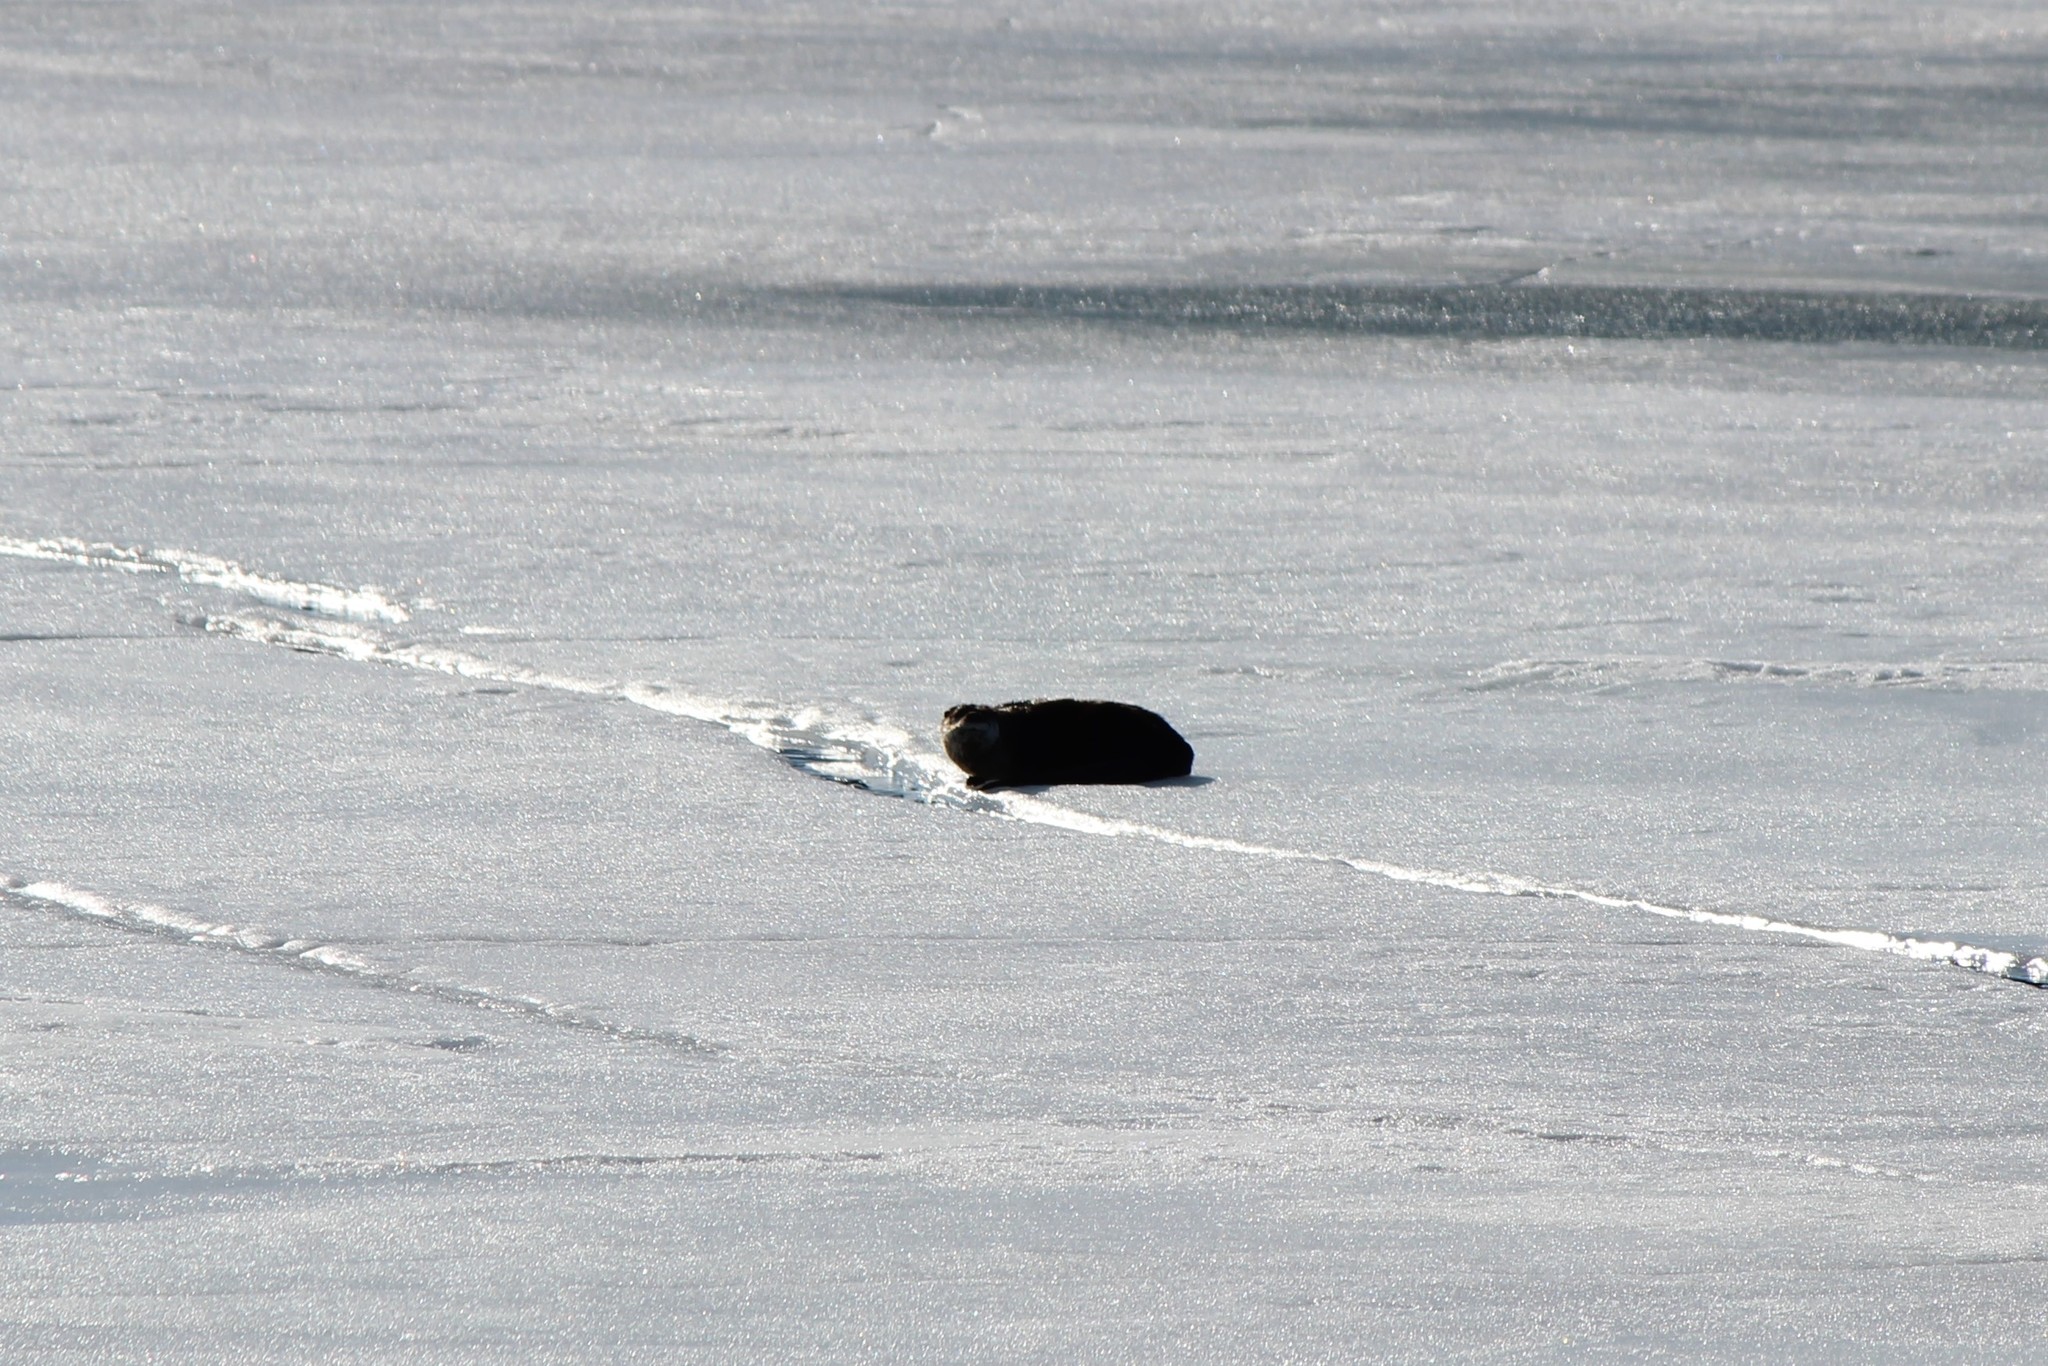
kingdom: Animalia
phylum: Chordata
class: Mammalia
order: Carnivora
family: Mustelidae
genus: Lontra
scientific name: Lontra canadensis
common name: North american river otter
